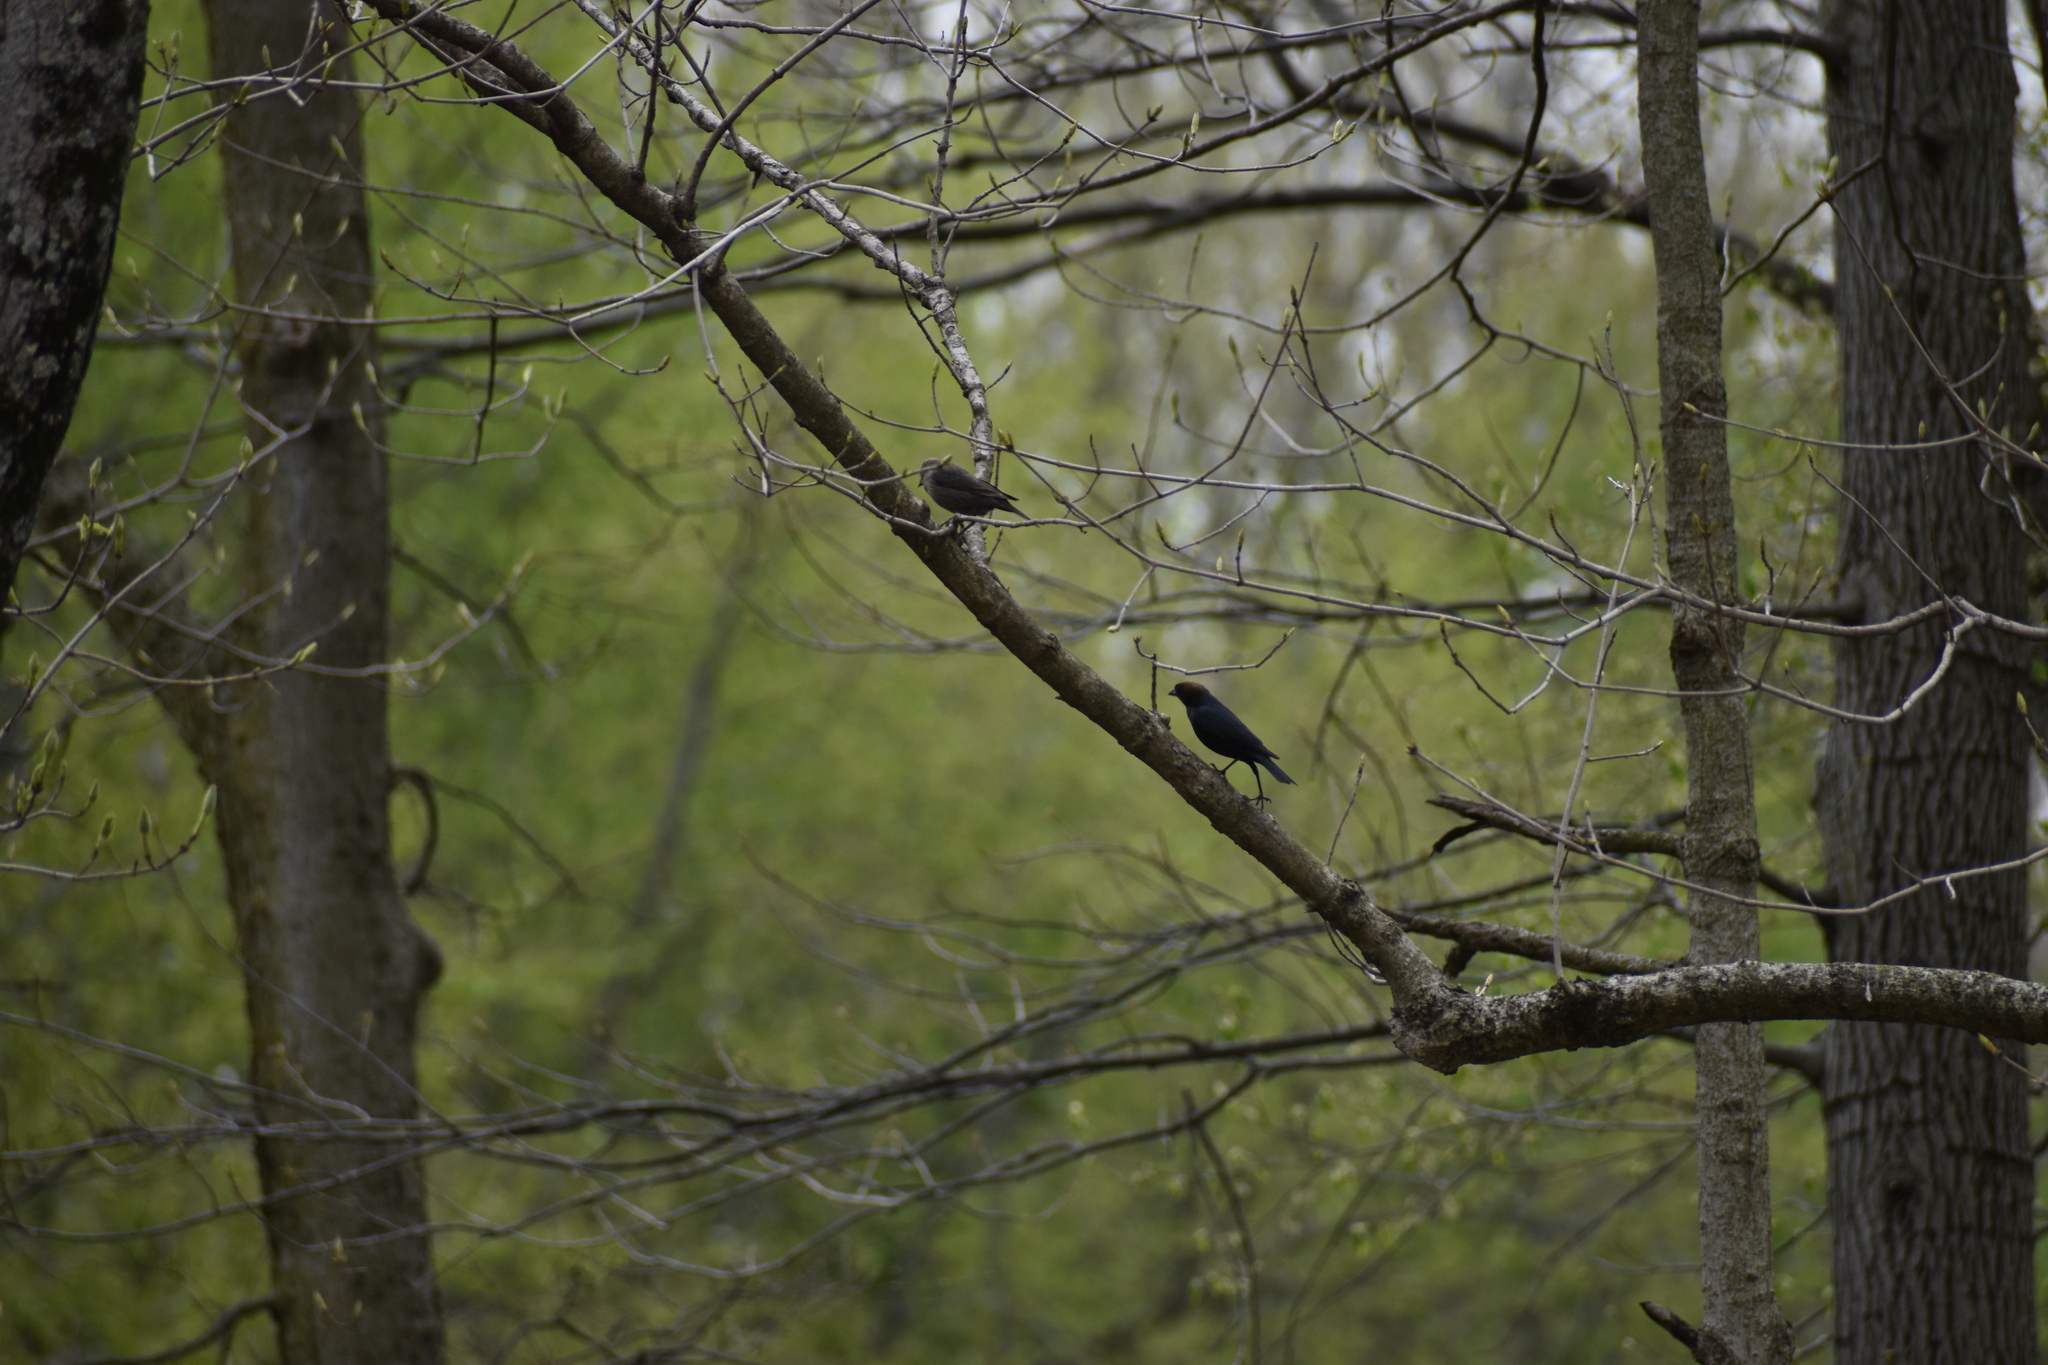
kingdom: Animalia
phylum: Chordata
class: Aves
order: Passeriformes
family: Icteridae
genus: Molothrus
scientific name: Molothrus ater
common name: Brown-headed cowbird
